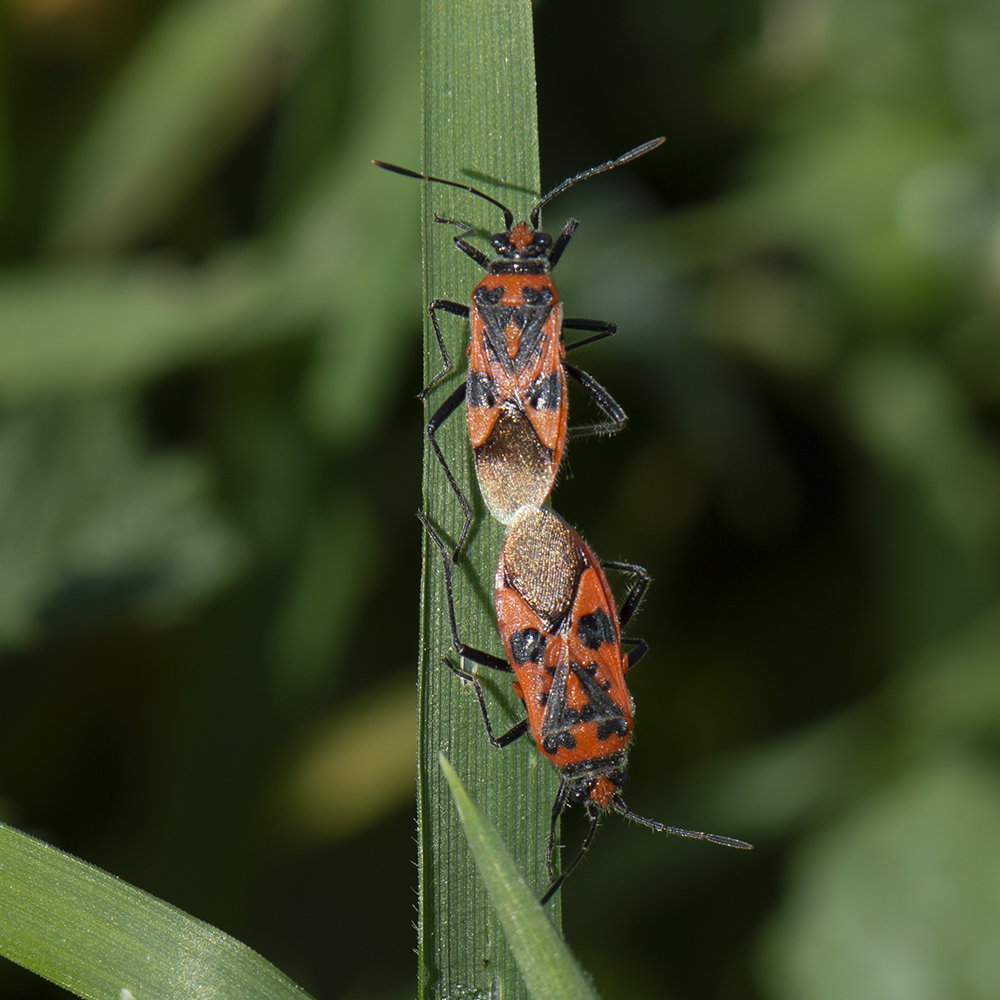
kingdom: Animalia
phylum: Arthropoda
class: Insecta
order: Hemiptera
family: Rhopalidae
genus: Corizus
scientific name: Corizus hyoscyami
